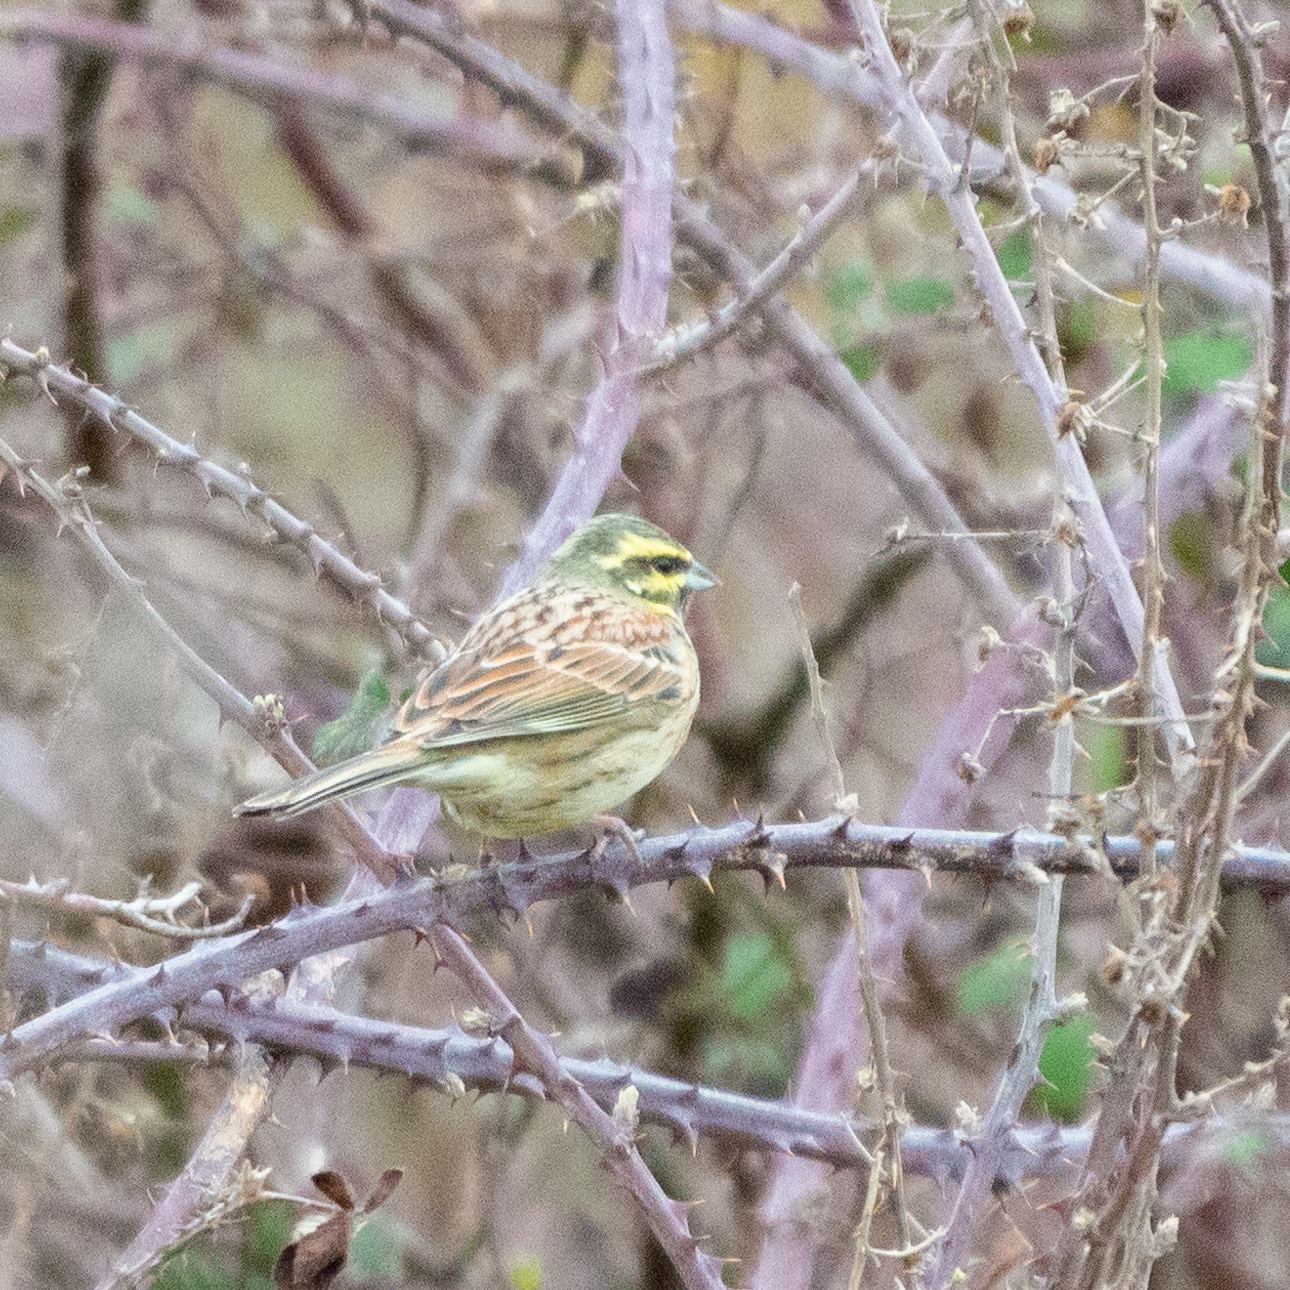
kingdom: Animalia
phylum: Chordata
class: Aves
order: Passeriformes
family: Emberizidae
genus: Emberiza
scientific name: Emberiza cirlus
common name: Cirl bunting
